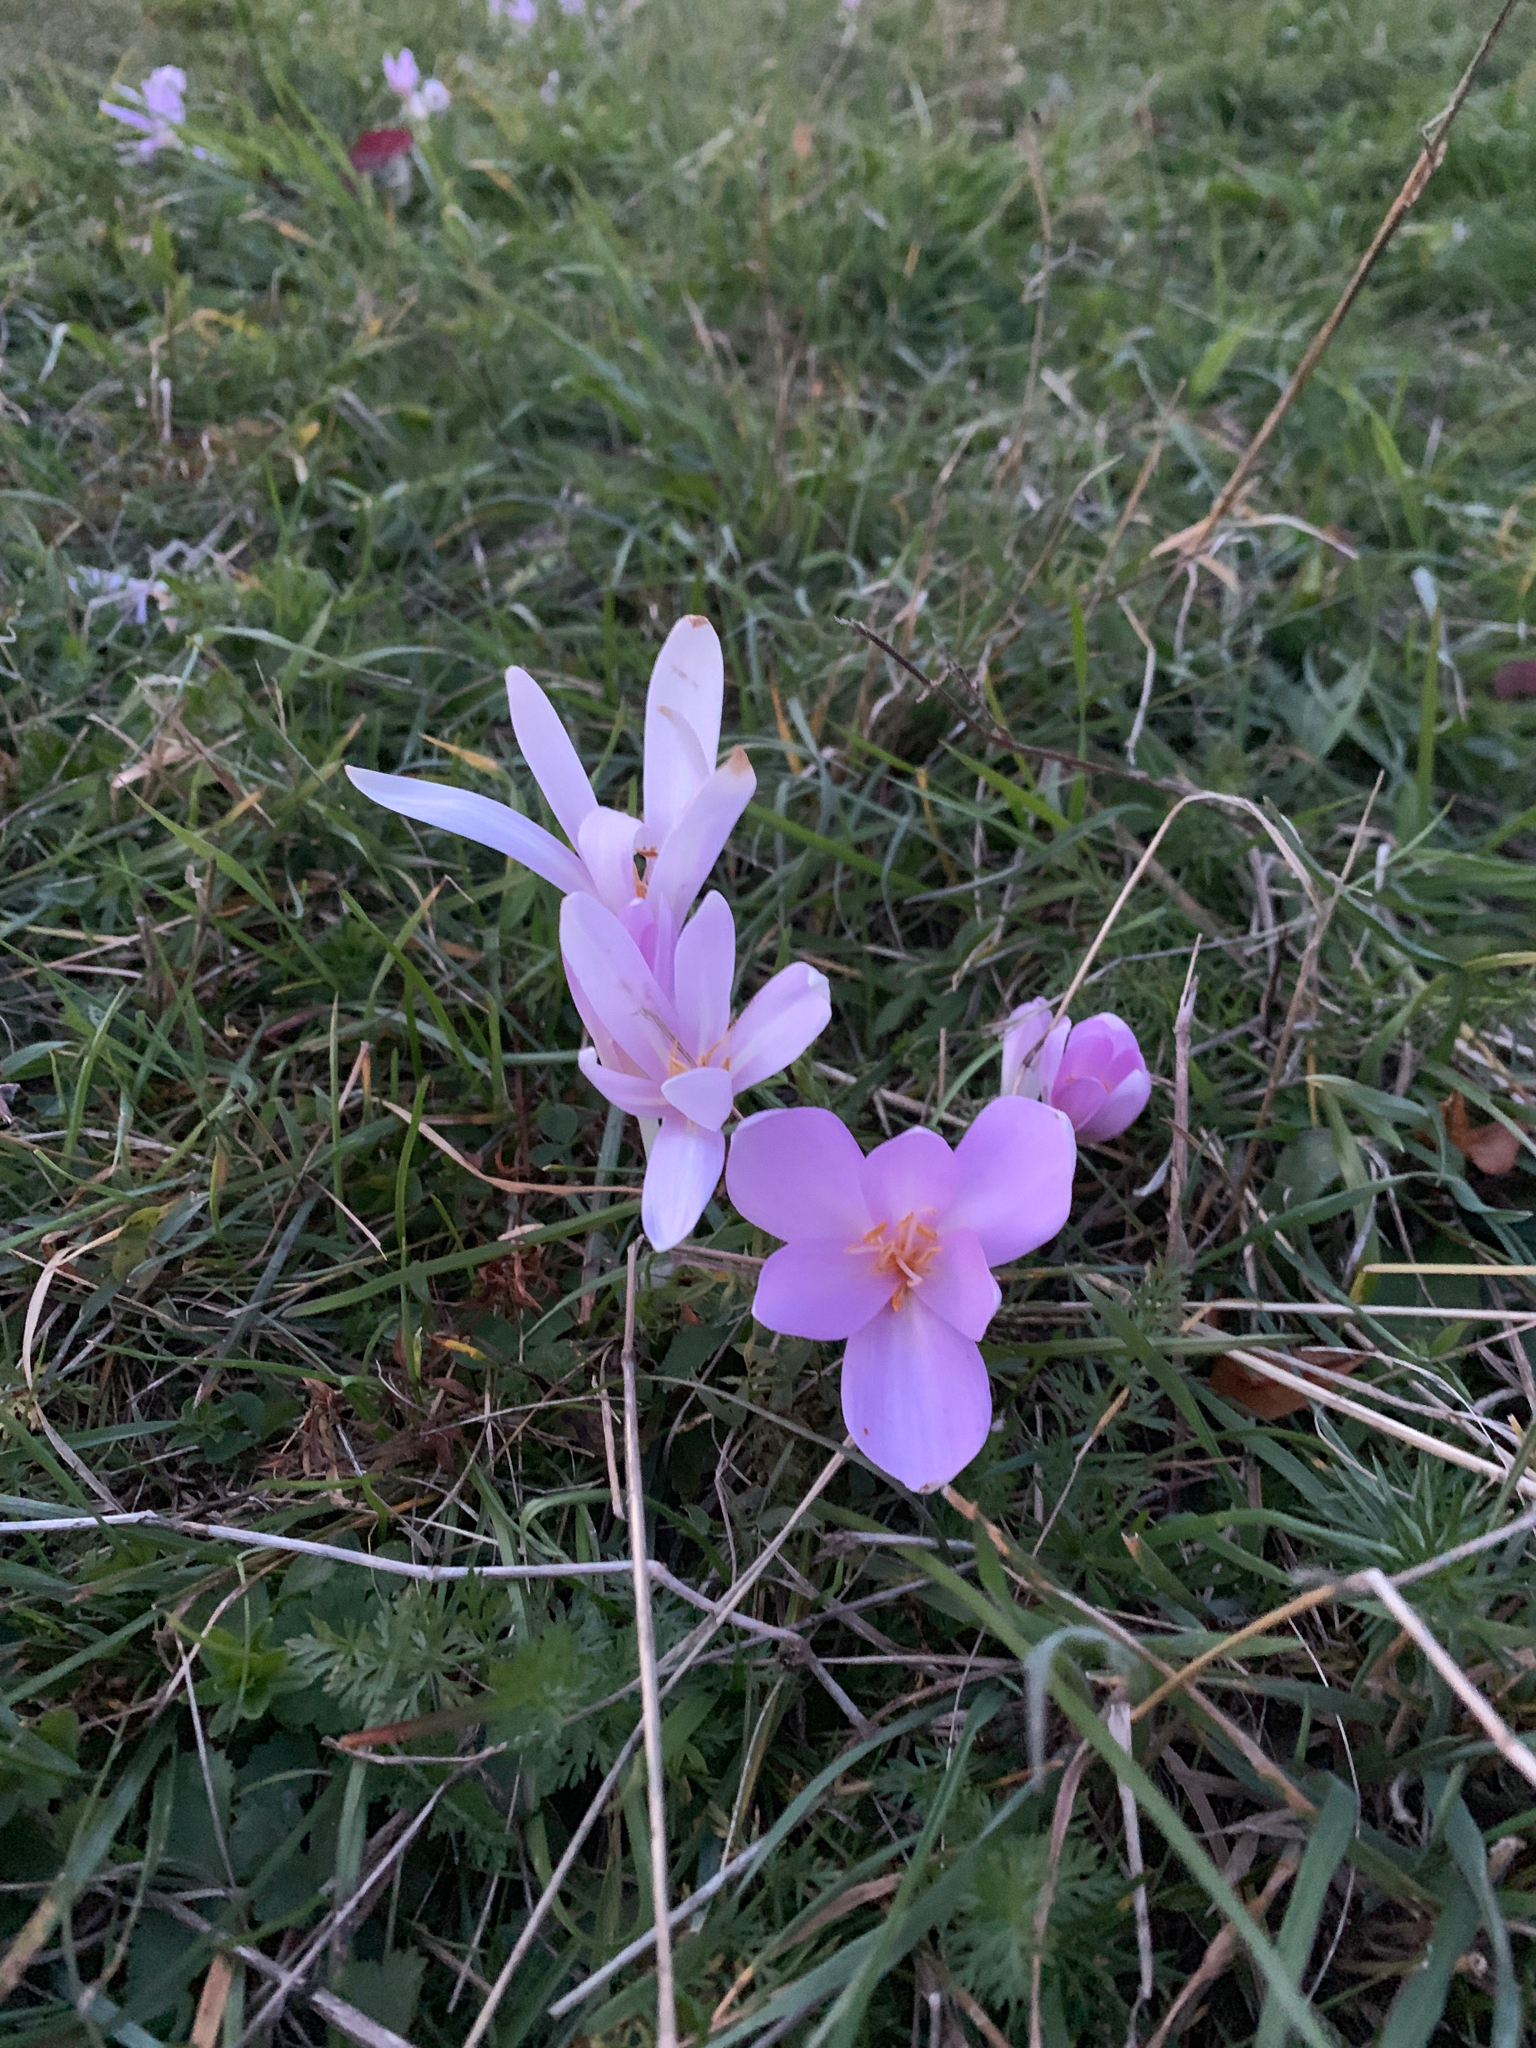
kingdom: Plantae
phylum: Tracheophyta
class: Liliopsida
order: Liliales
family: Colchicaceae
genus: Colchicum
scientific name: Colchicum autumnale
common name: Autumn crocus
